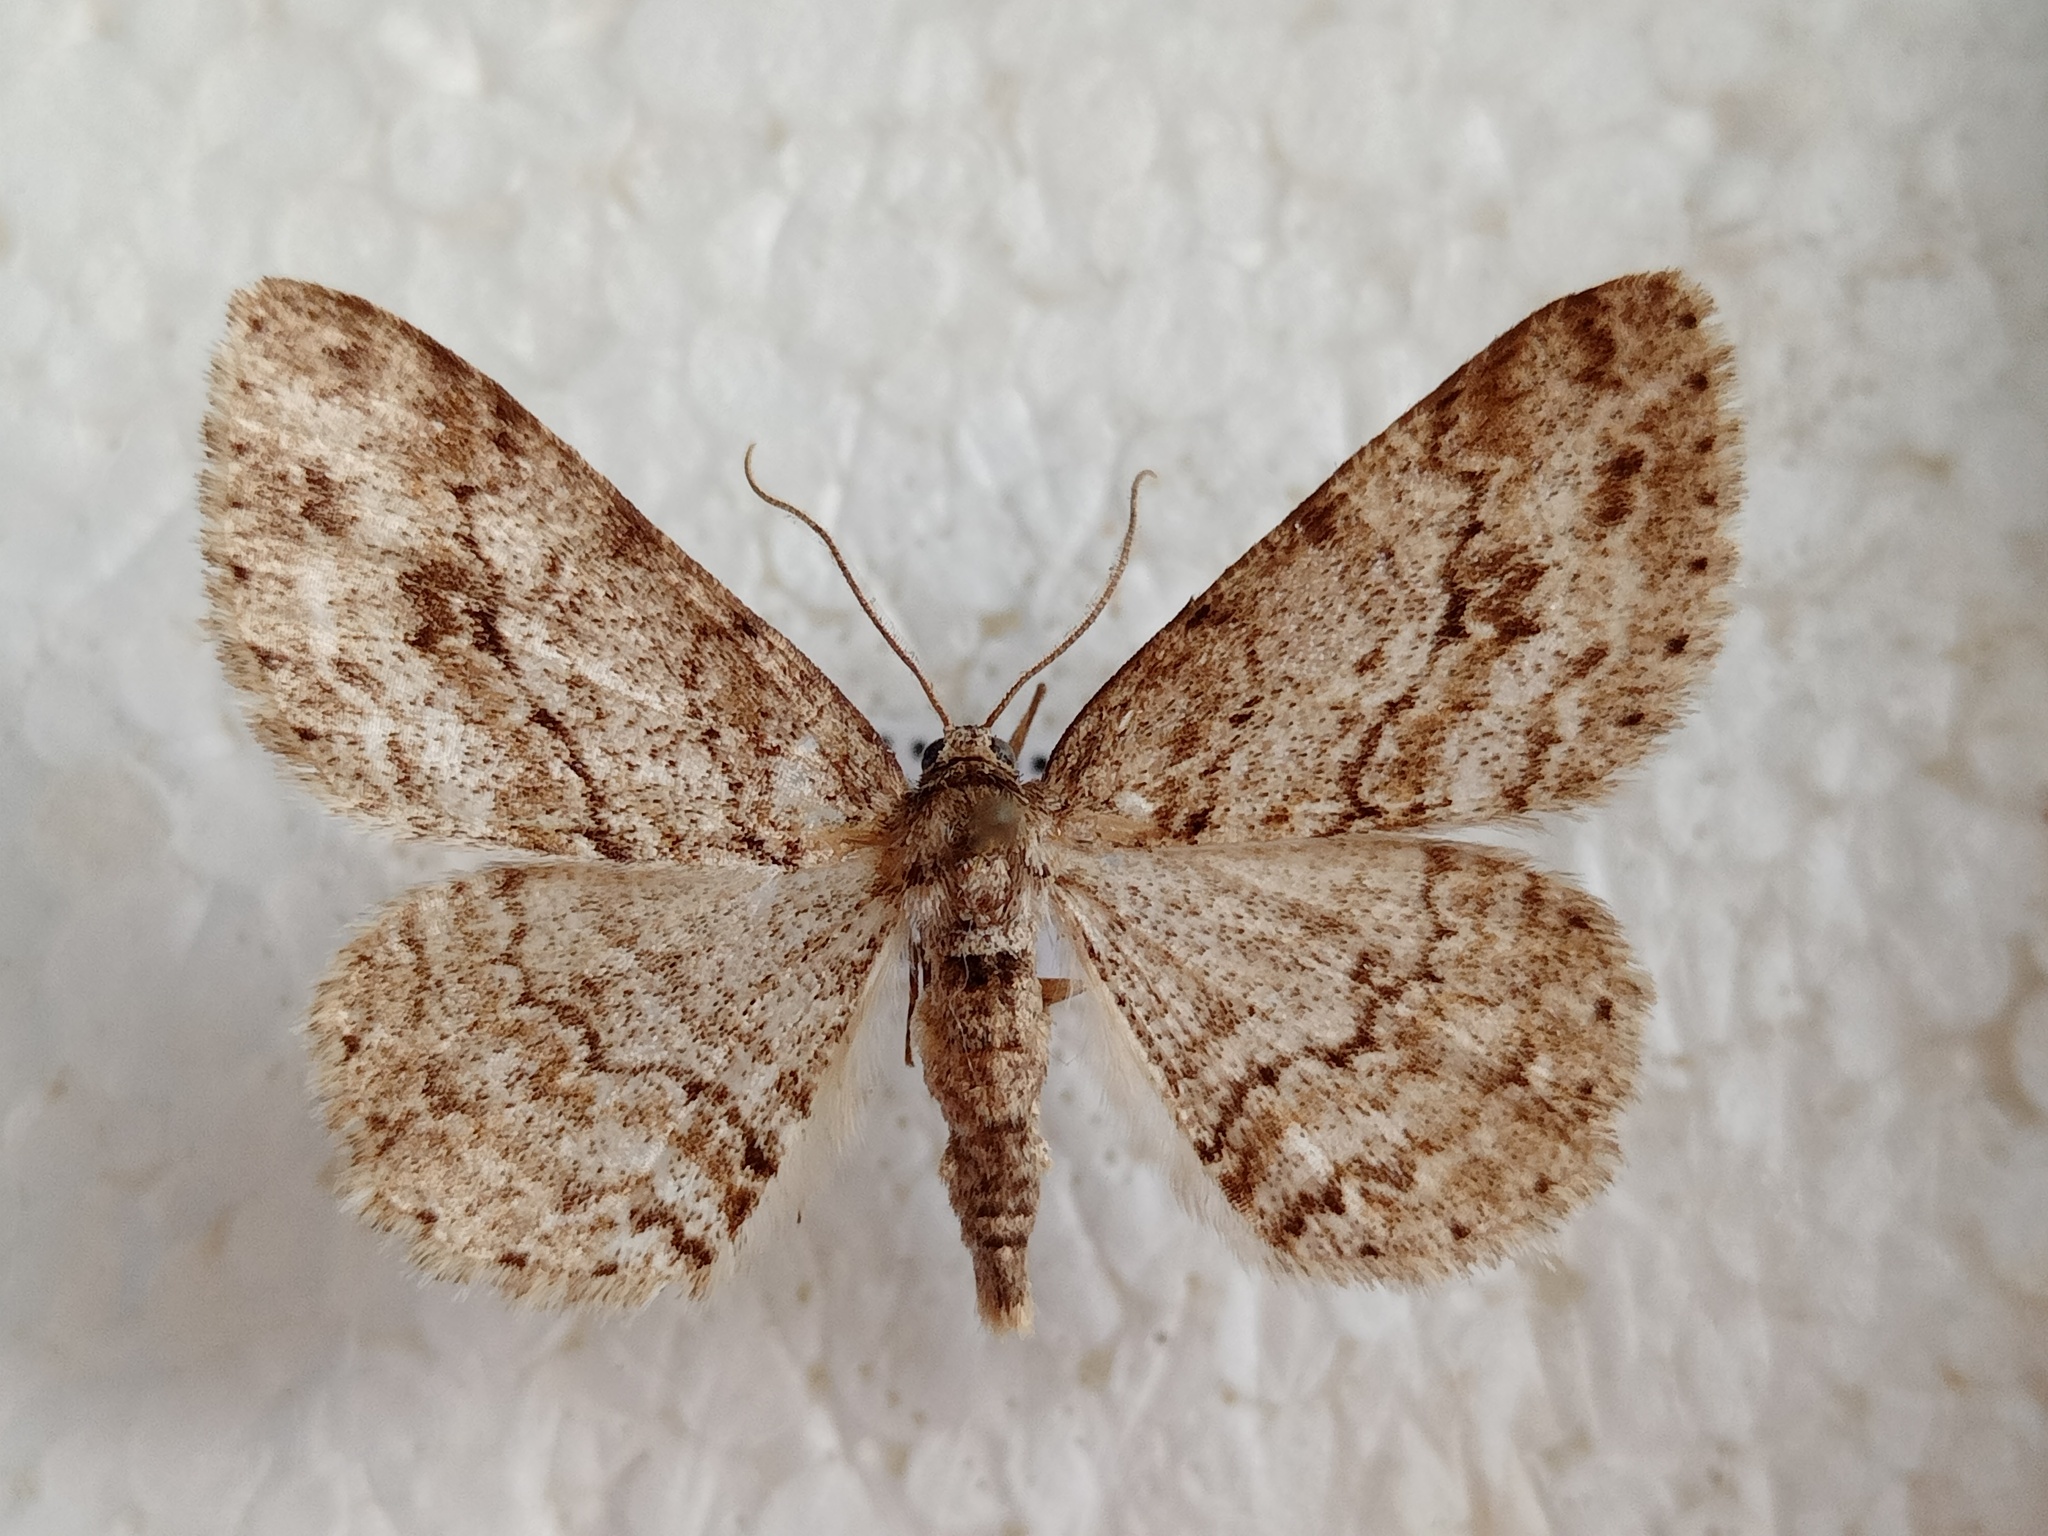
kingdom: Animalia
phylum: Arthropoda
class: Insecta
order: Lepidoptera
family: Geometridae
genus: Ectropis
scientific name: Ectropis crepuscularia
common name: Engrailed
